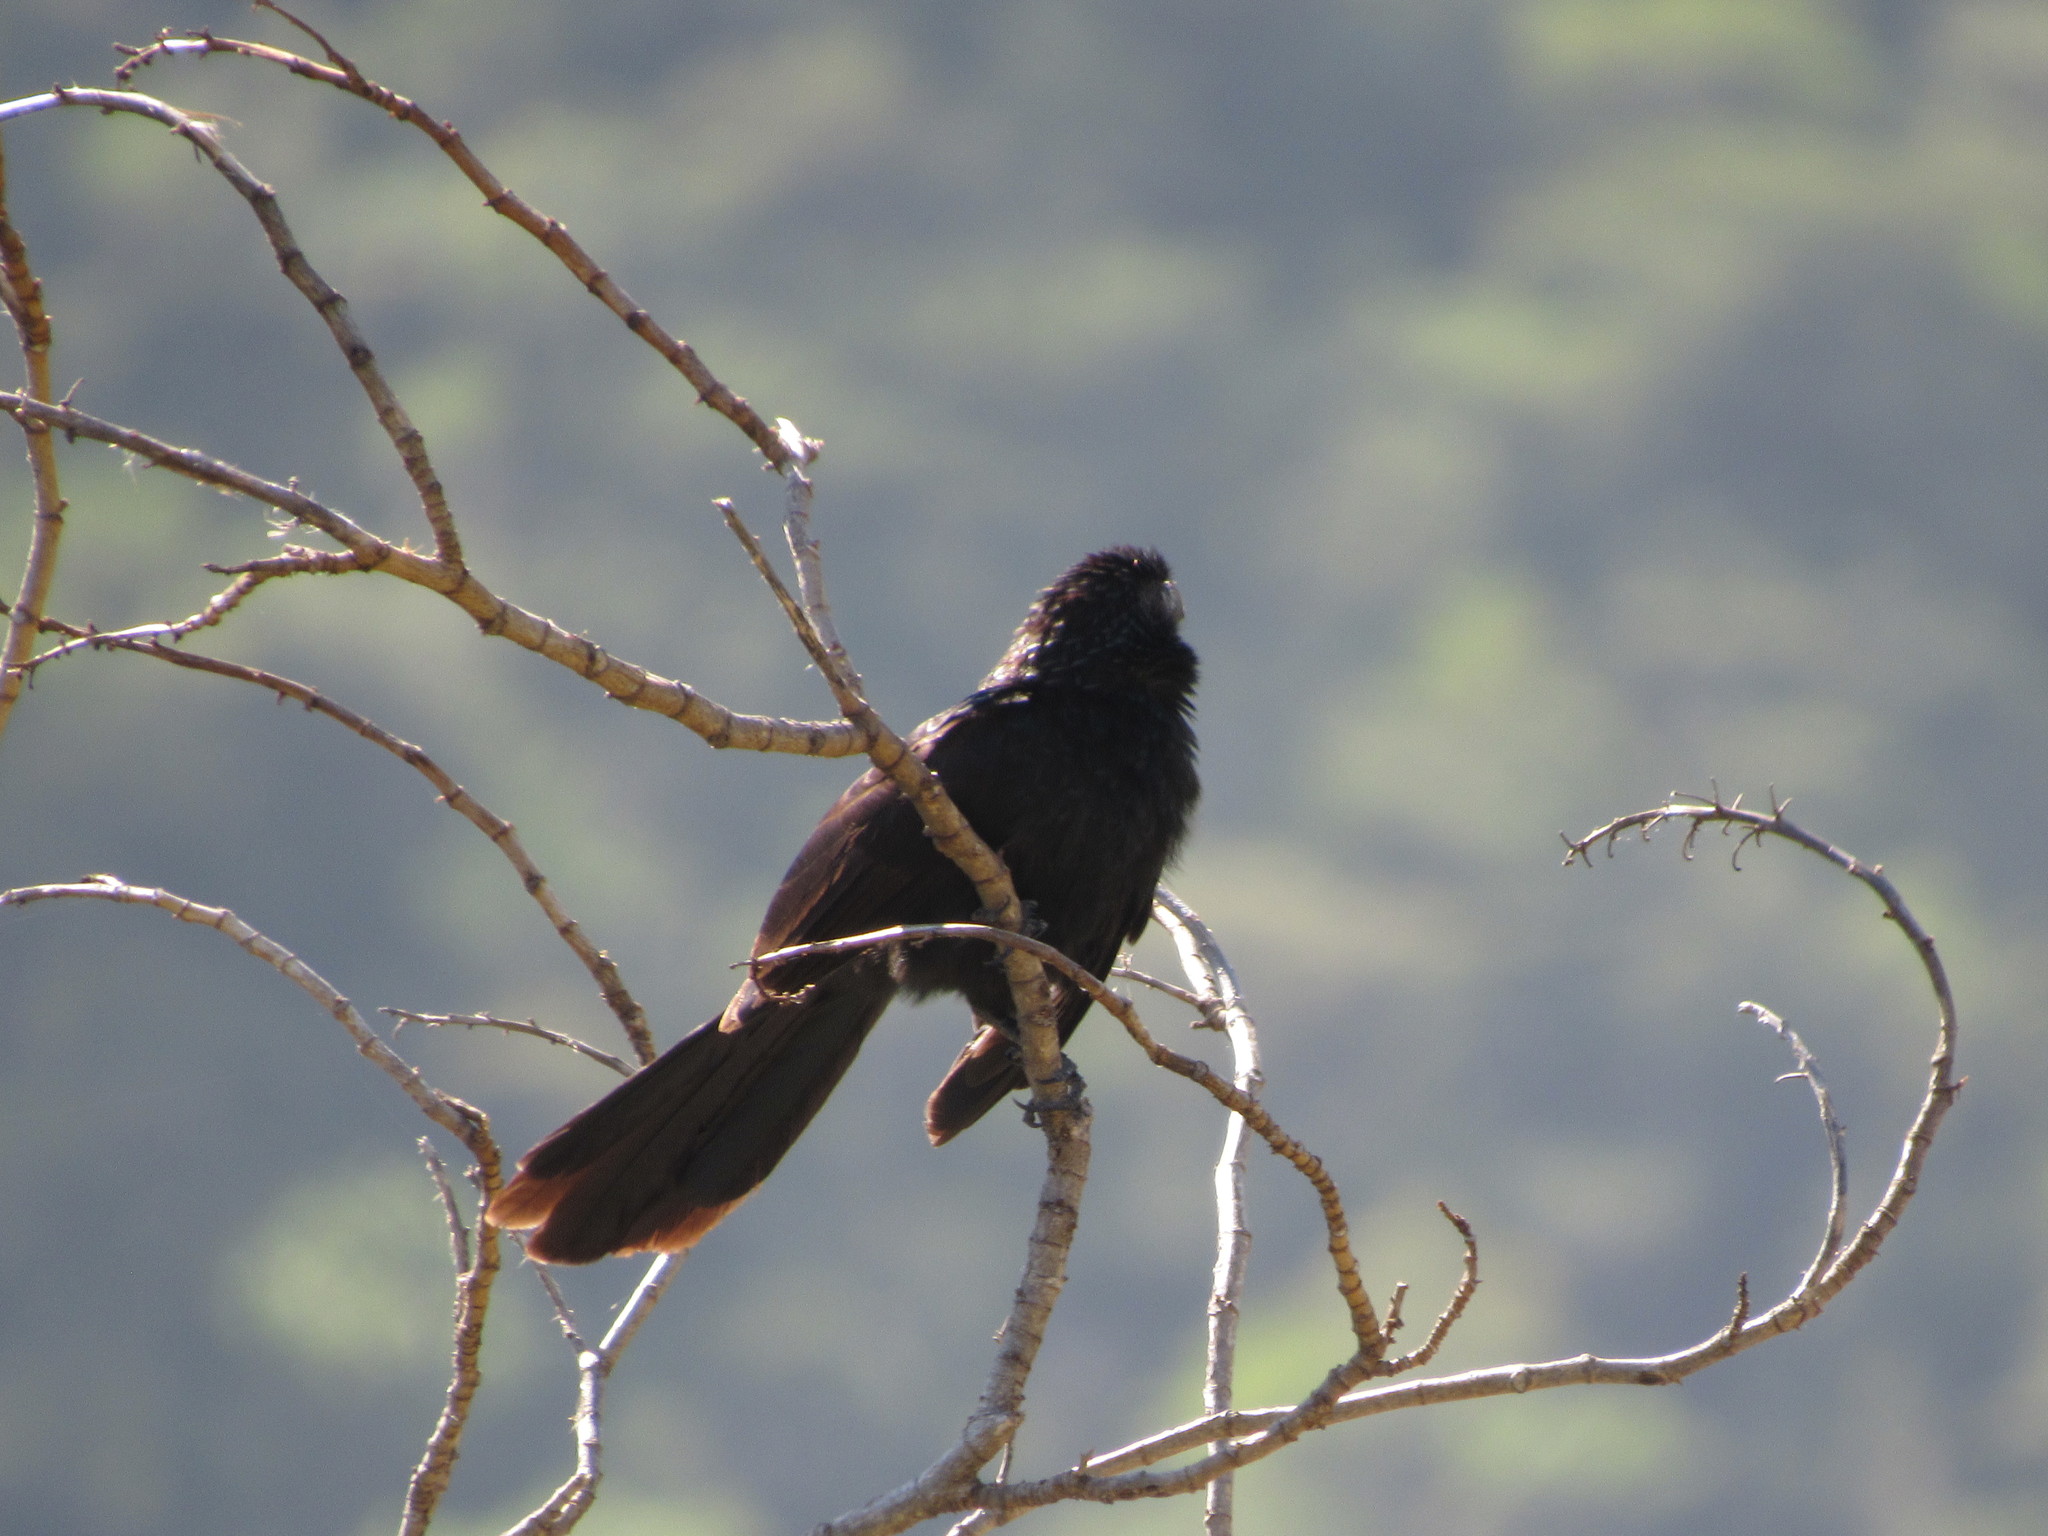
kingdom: Animalia
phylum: Chordata
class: Aves
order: Cuculiformes
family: Cuculidae
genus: Crotophaga
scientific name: Crotophaga sulcirostris
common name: Groove-billed ani
